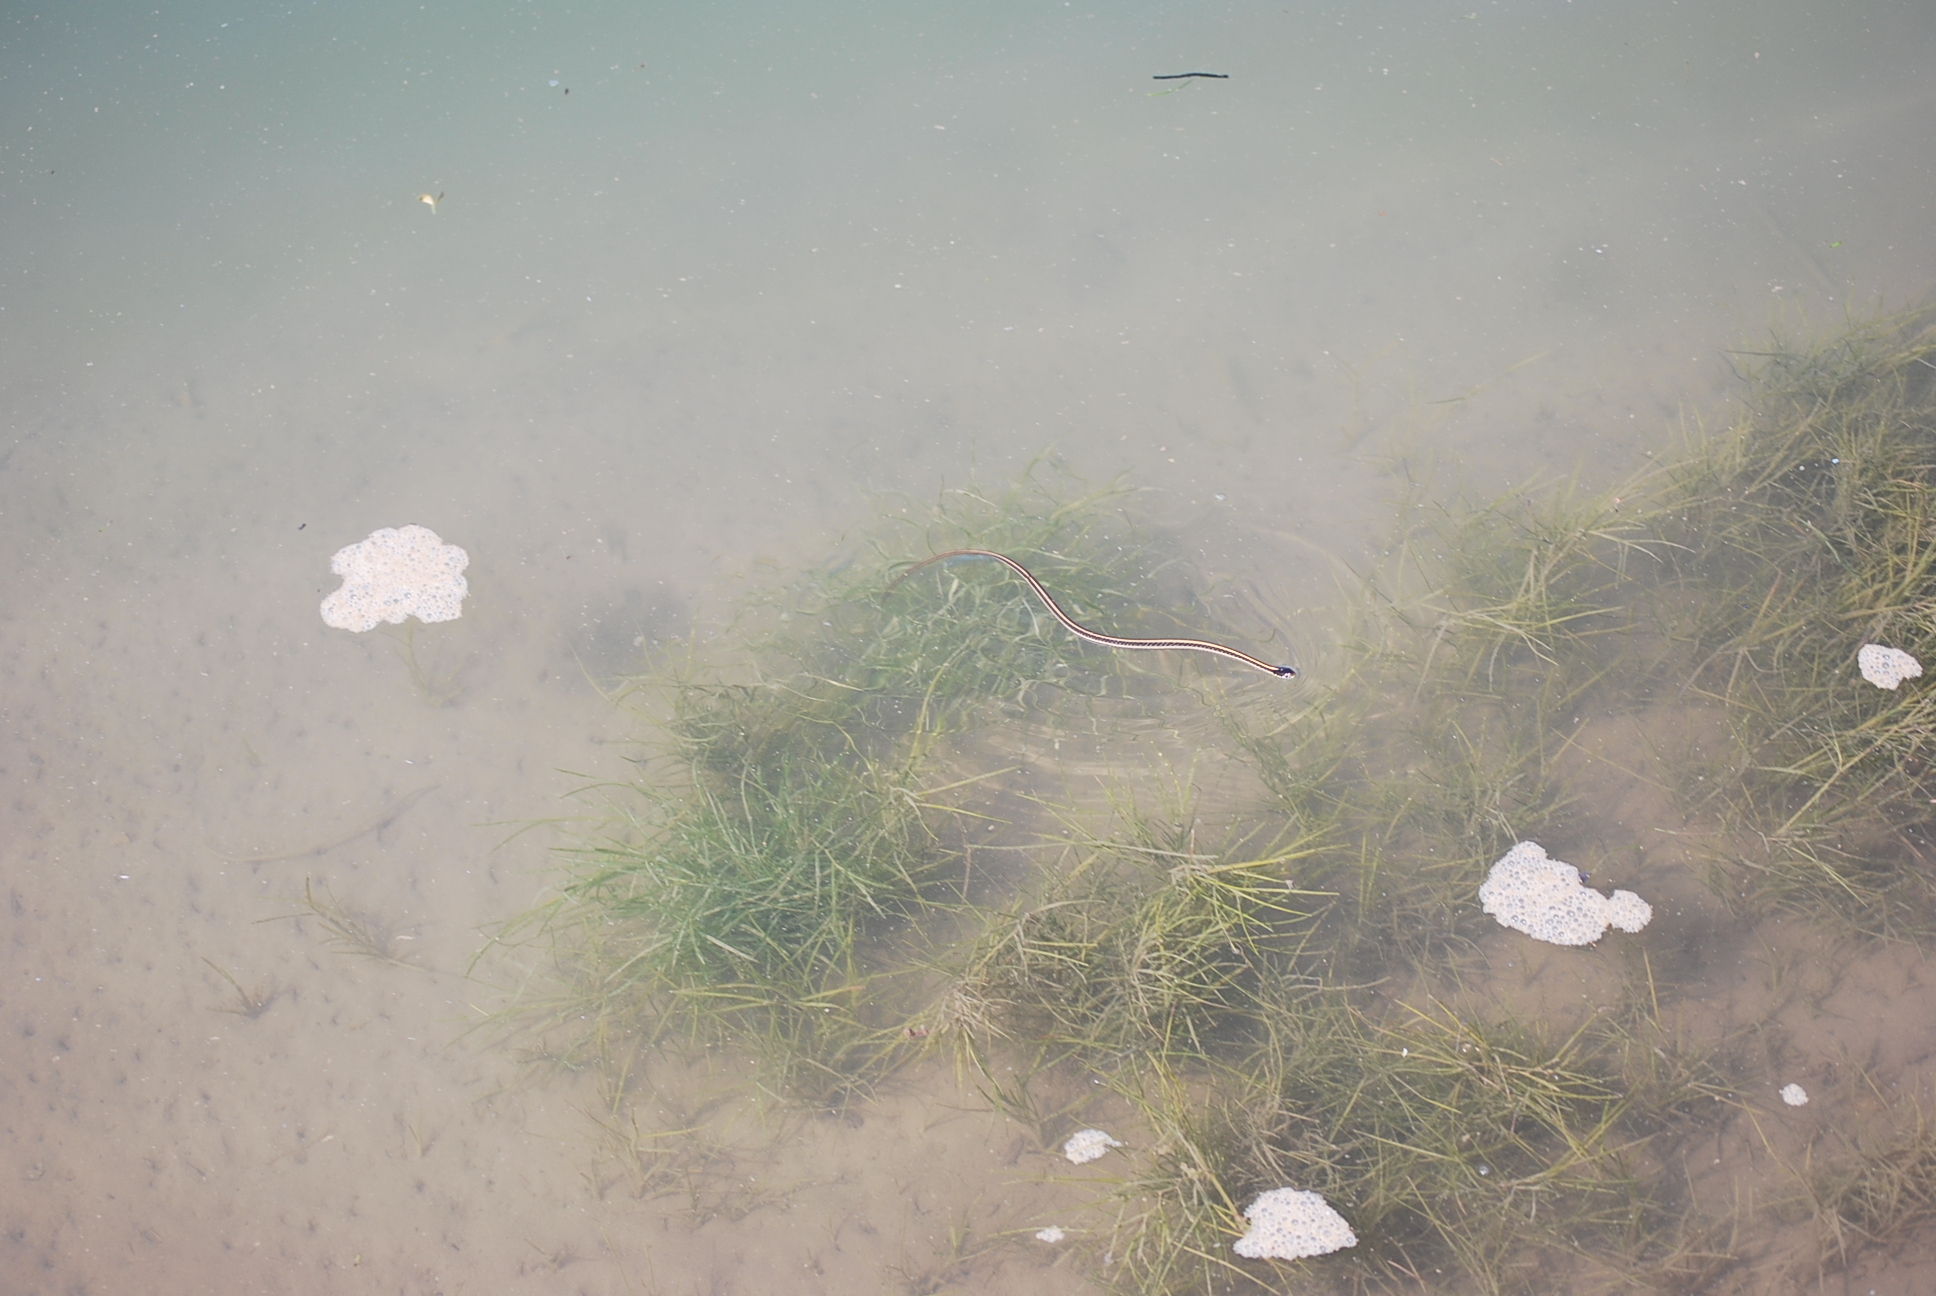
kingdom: Animalia
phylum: Chordata
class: Squamata
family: Colubridae
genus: Thamnophis
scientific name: Thamnophis radix
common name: Plains garter snake
